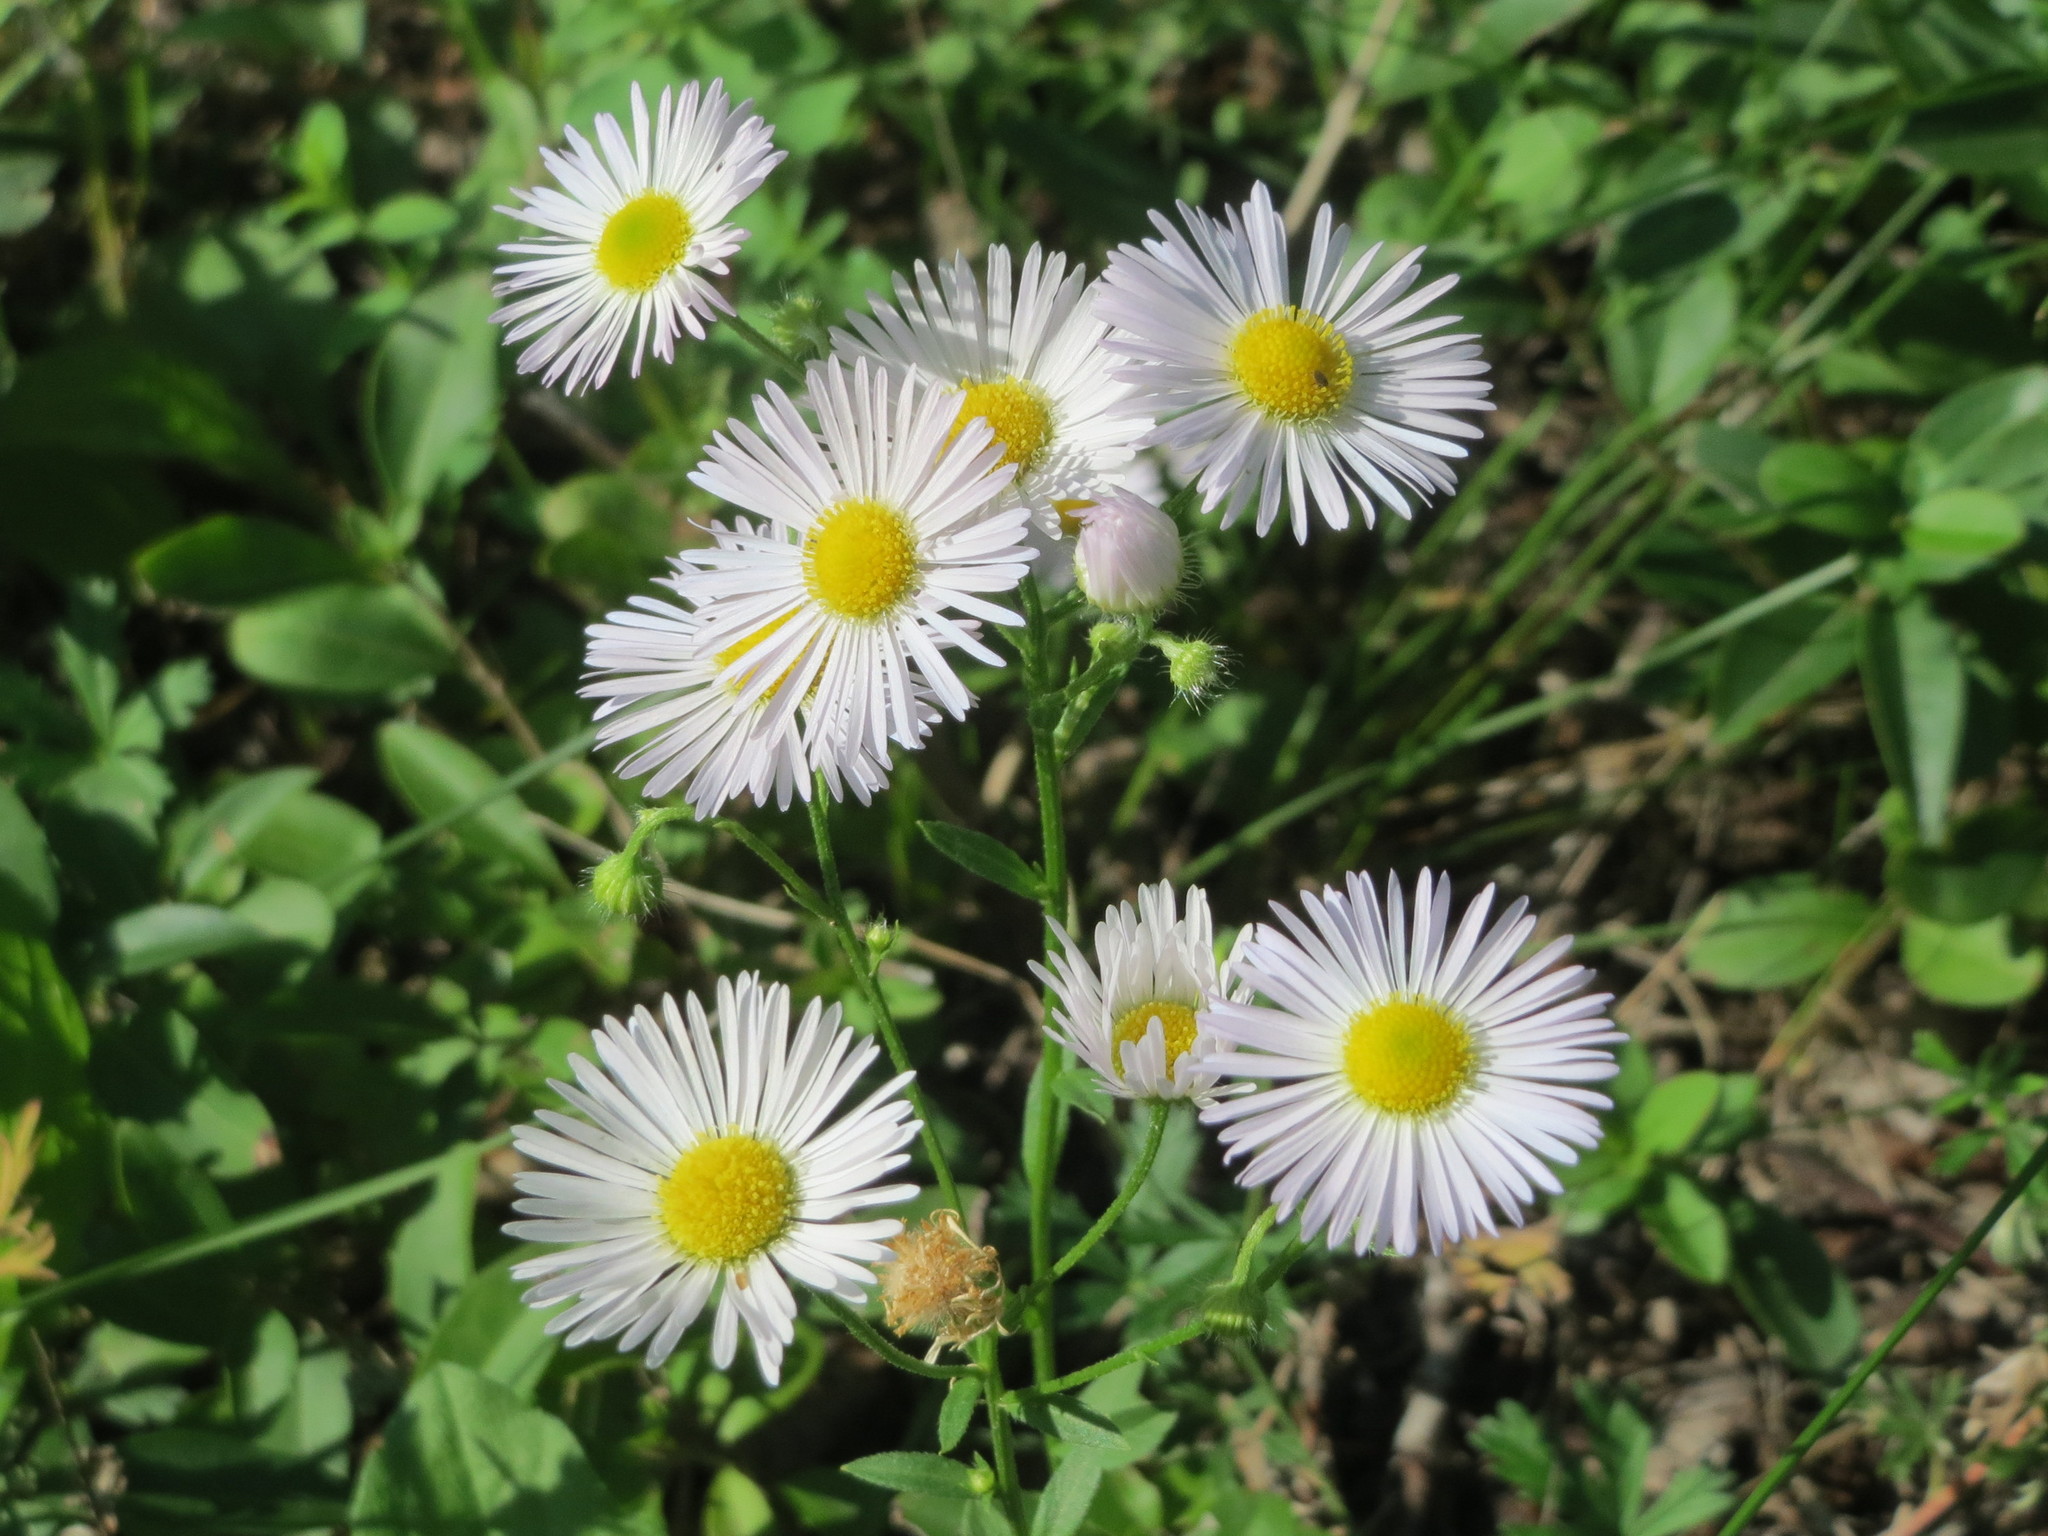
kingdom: Plantae
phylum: Tracheophyta
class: Magnoliopsida
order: Asterales
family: Asteraceae
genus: Erigeron
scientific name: Erigeron annuus
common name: Tall fleabane
